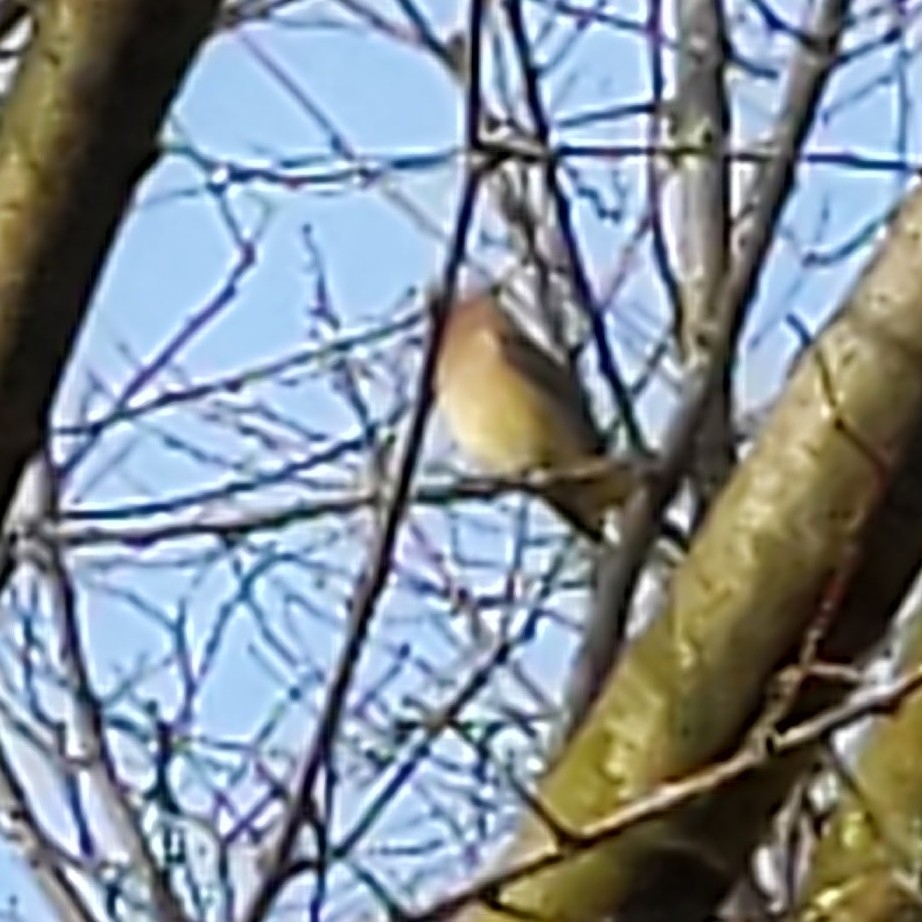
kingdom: Animalia
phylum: Chordata
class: Aves
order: Passeriformes
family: Bombycillidae
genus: Bombycilla
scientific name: Bombycilla cedrorum
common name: Cedar waxwing
